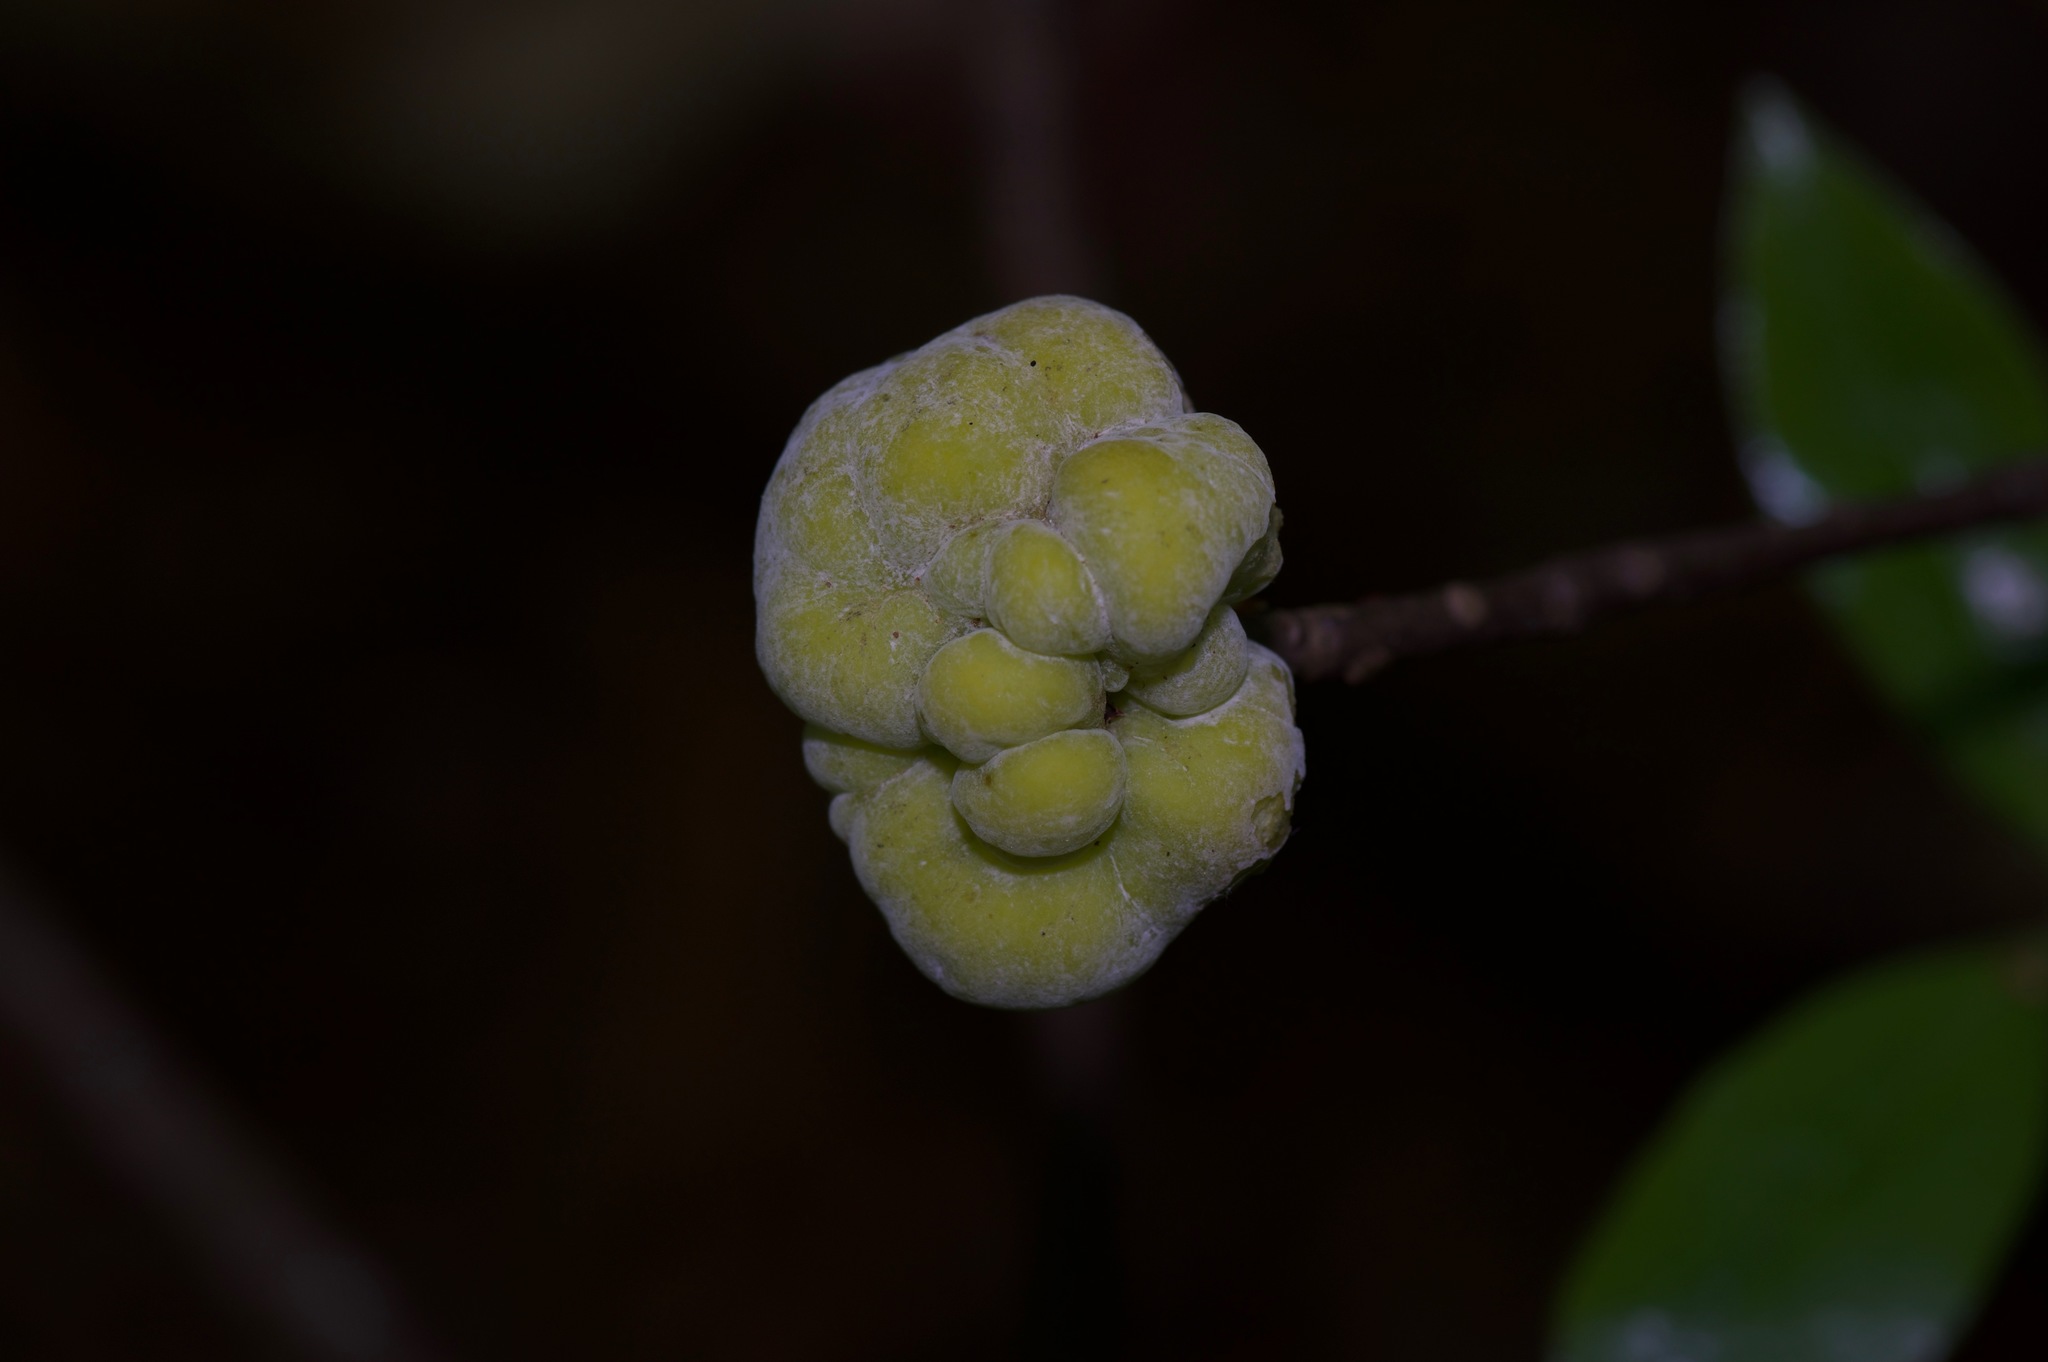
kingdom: Plantae
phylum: Tracheophyta
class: Magnoliopsida
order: Ericales
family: Symplocaceae
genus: Symplocos
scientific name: Symplocos tinctoria
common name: Horse-sugar
